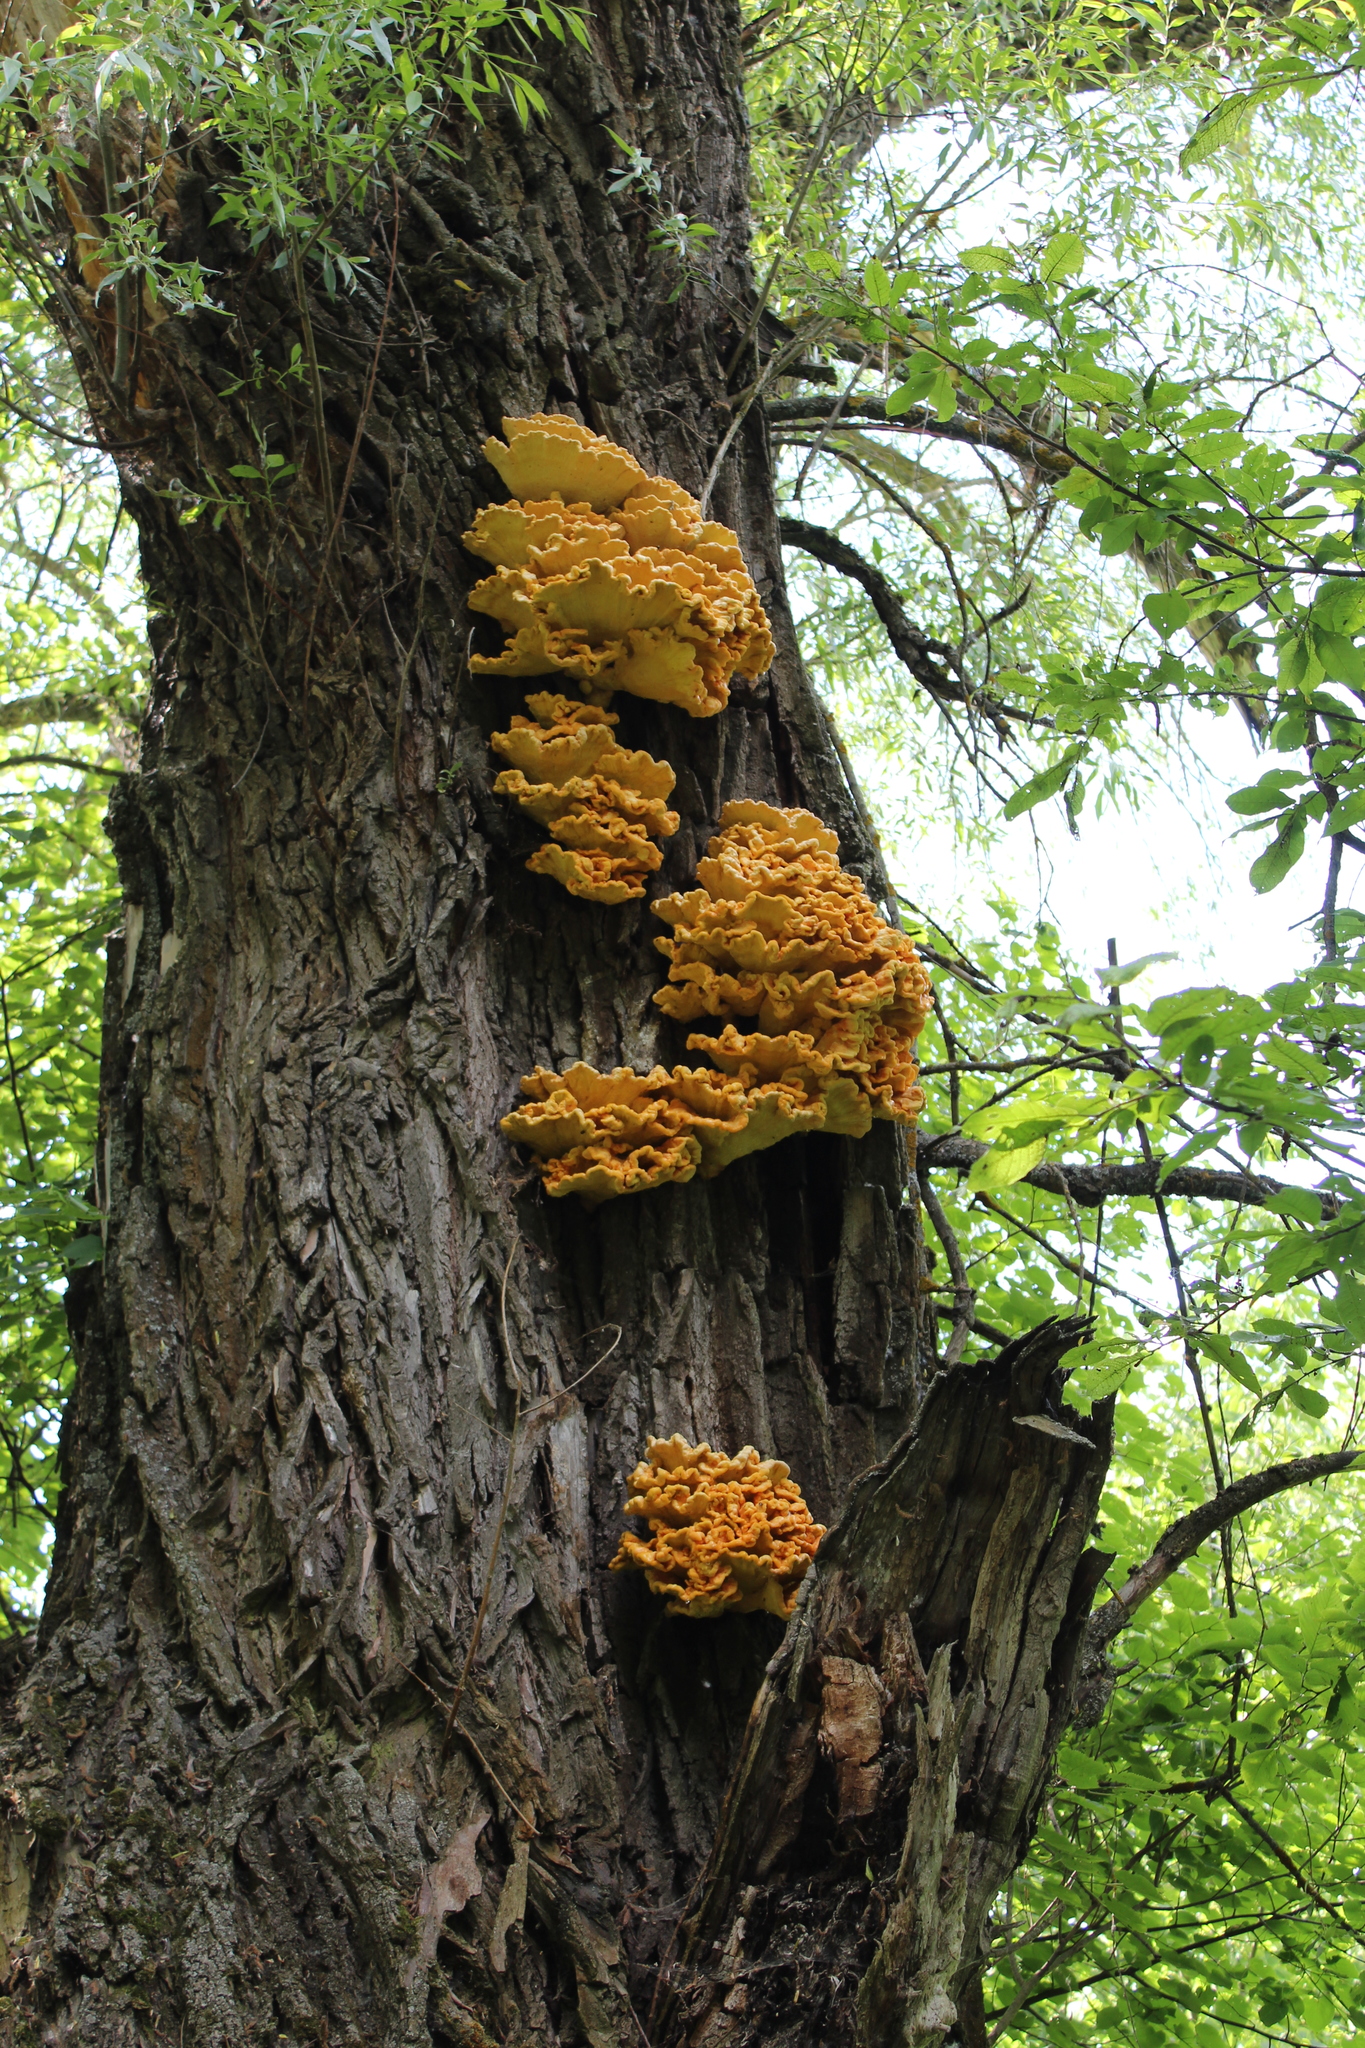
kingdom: Fungi
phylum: Basidiomycota
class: Agaricomycetes
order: Polyporales
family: Laetiporaceae
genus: Laetiporus
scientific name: Laetiporus sulphureus
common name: Chicken of the woods
